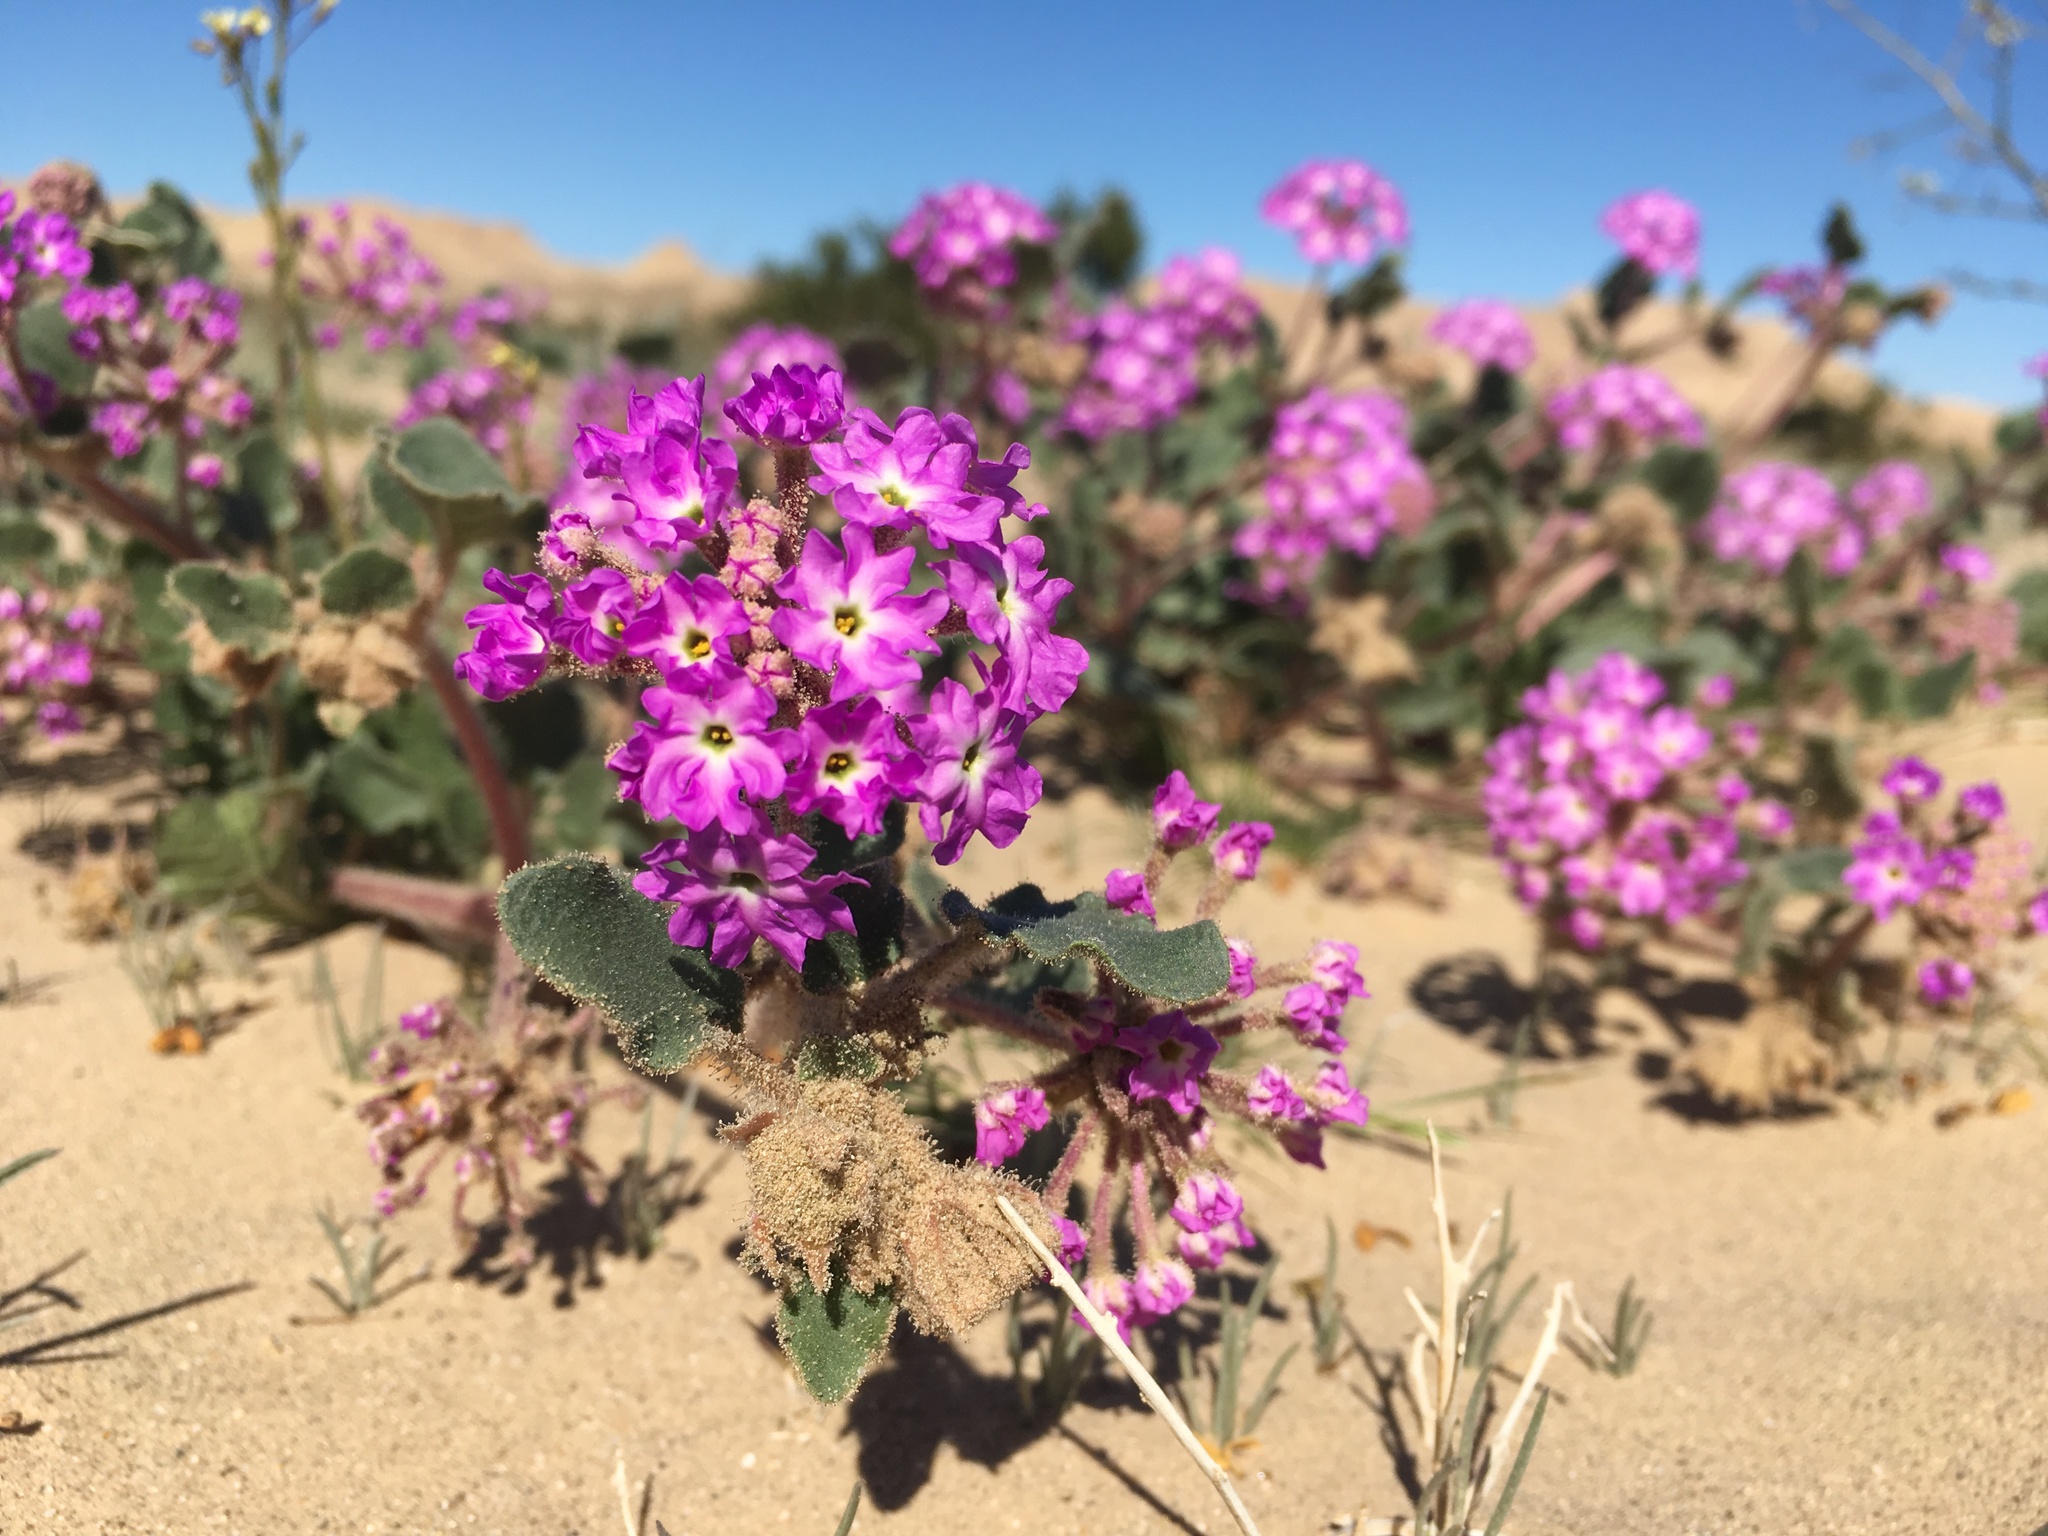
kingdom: Plantae
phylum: Tracheophyta
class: Magnoliopsida
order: Caryophyllales
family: Nyctaginaceae
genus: Abronia
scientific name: Abronia villosa
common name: Desert sand-verbena
